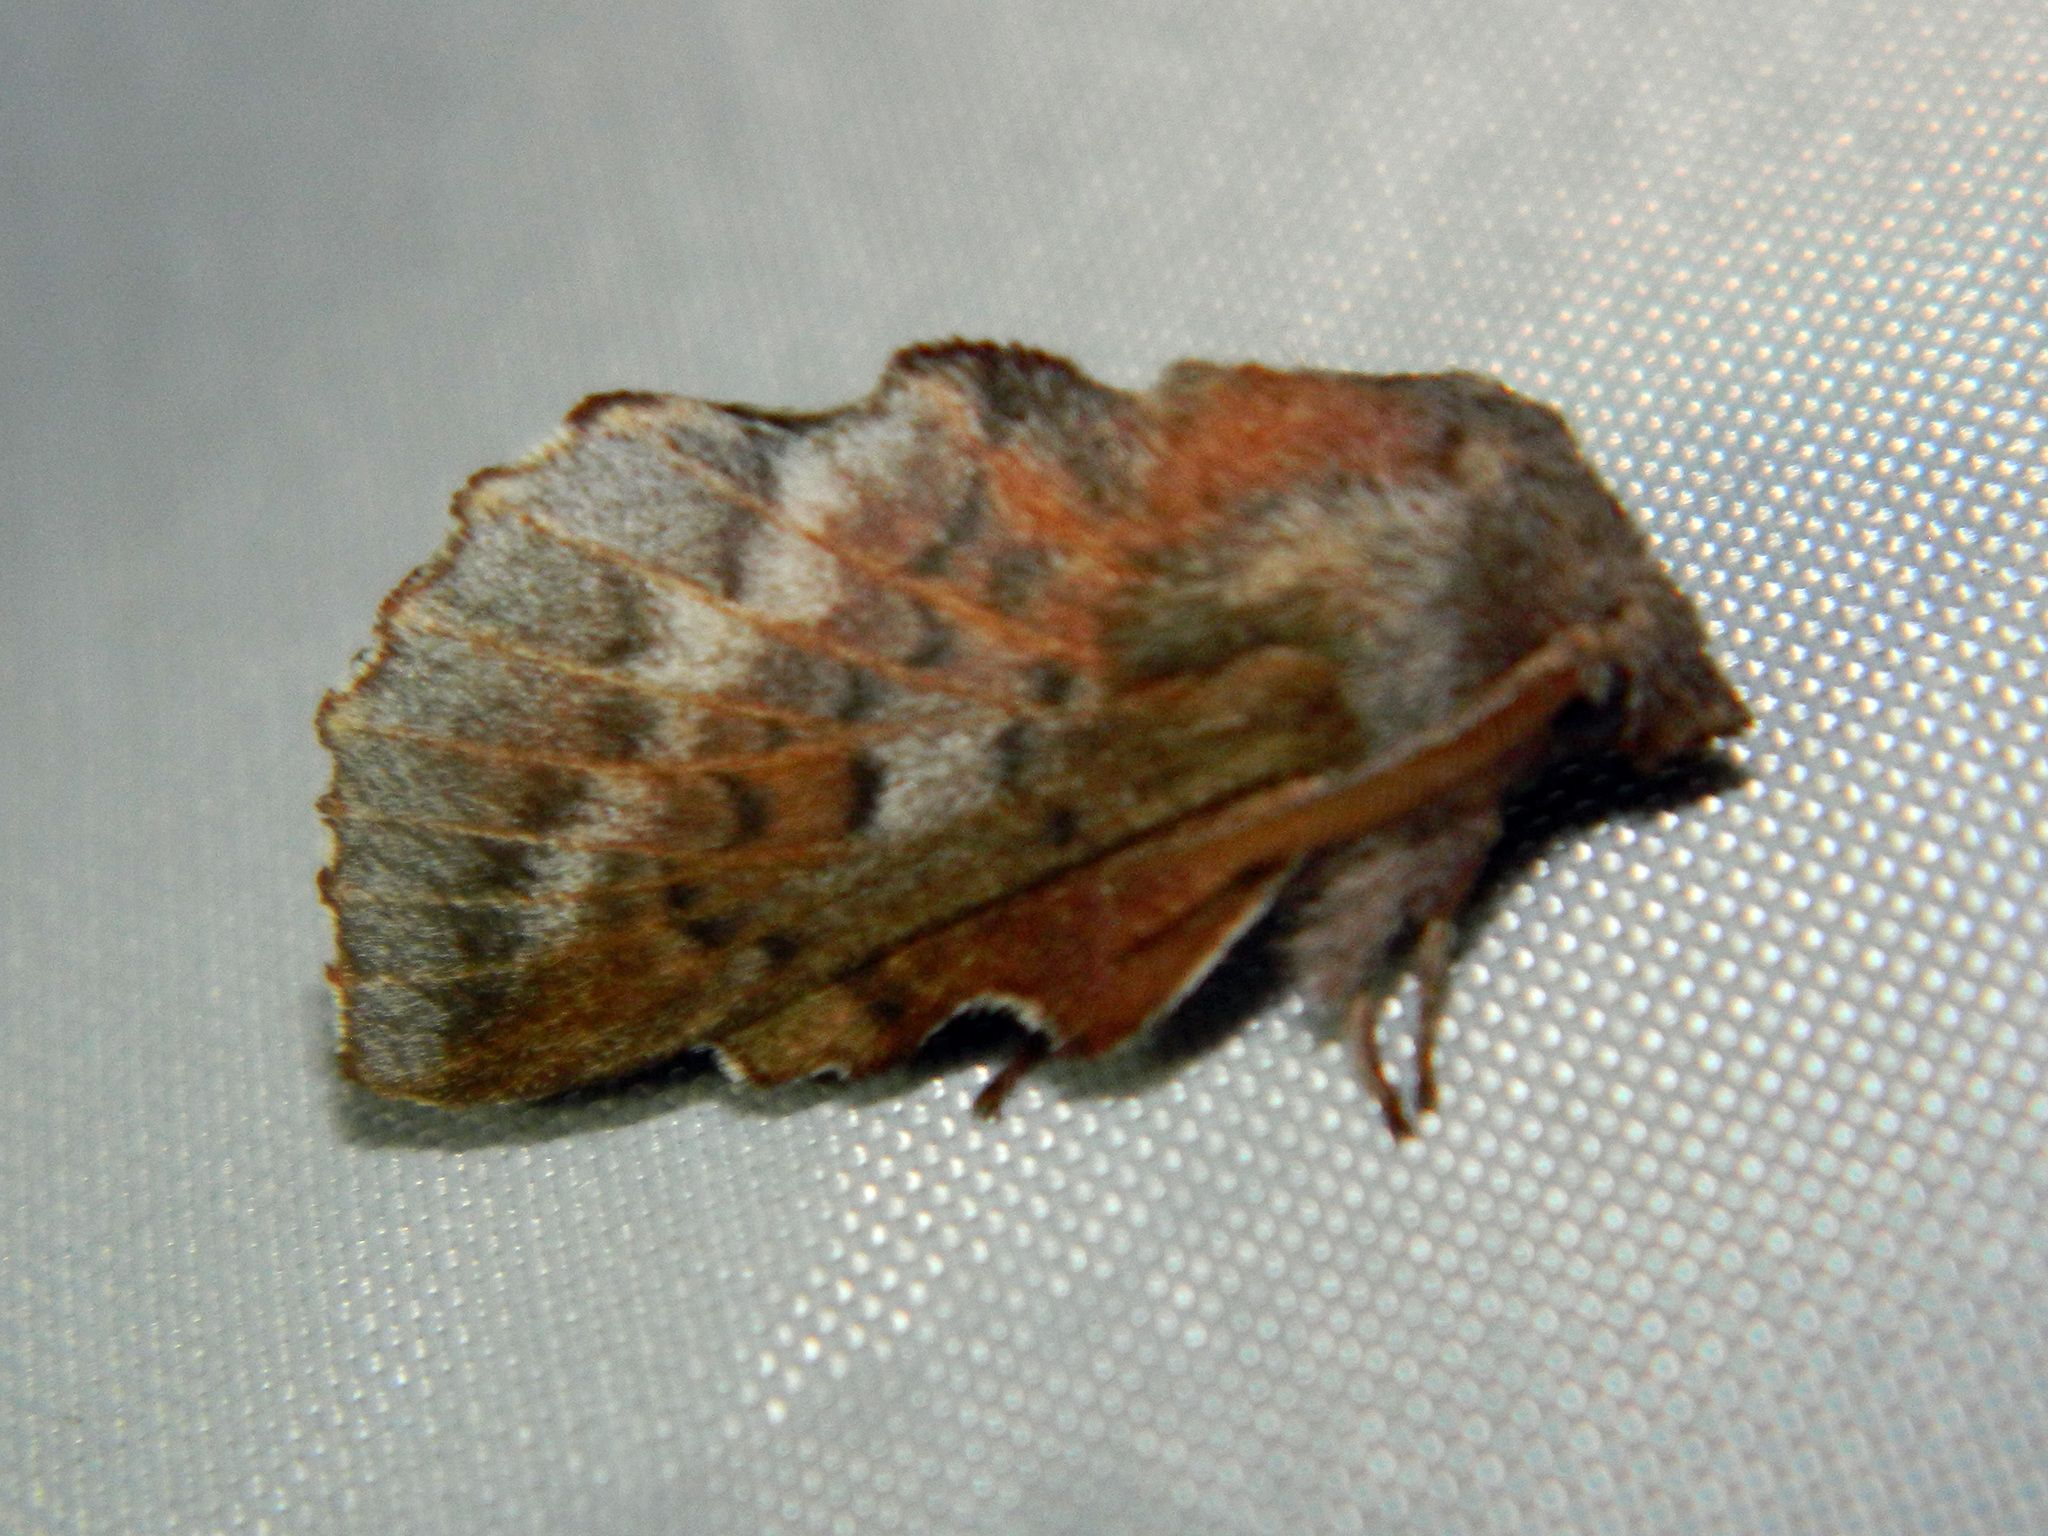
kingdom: Animalia
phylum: Arthropoda
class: Insecta
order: Lepidoptera
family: Lasiocampidae
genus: Phyllodesma
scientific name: Phyllodesma americana
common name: American lappet moth
